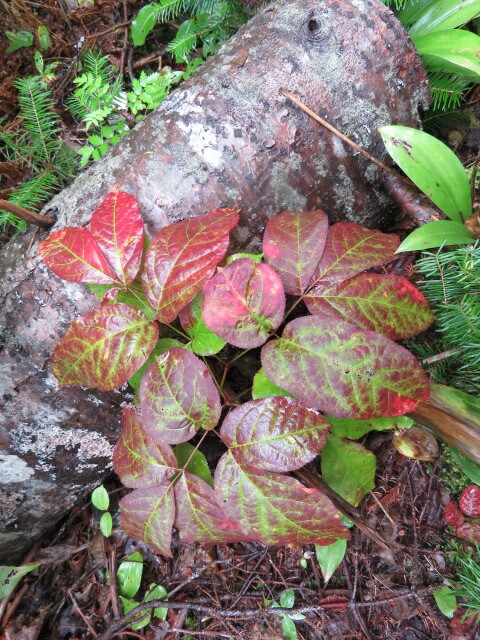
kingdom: Plantae
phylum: Tracheophyta
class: Magnoliopsida
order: Apiales
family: Araliaceae
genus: Aralia
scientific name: Aralia nudicaulis
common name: Wild sarsaparilla
